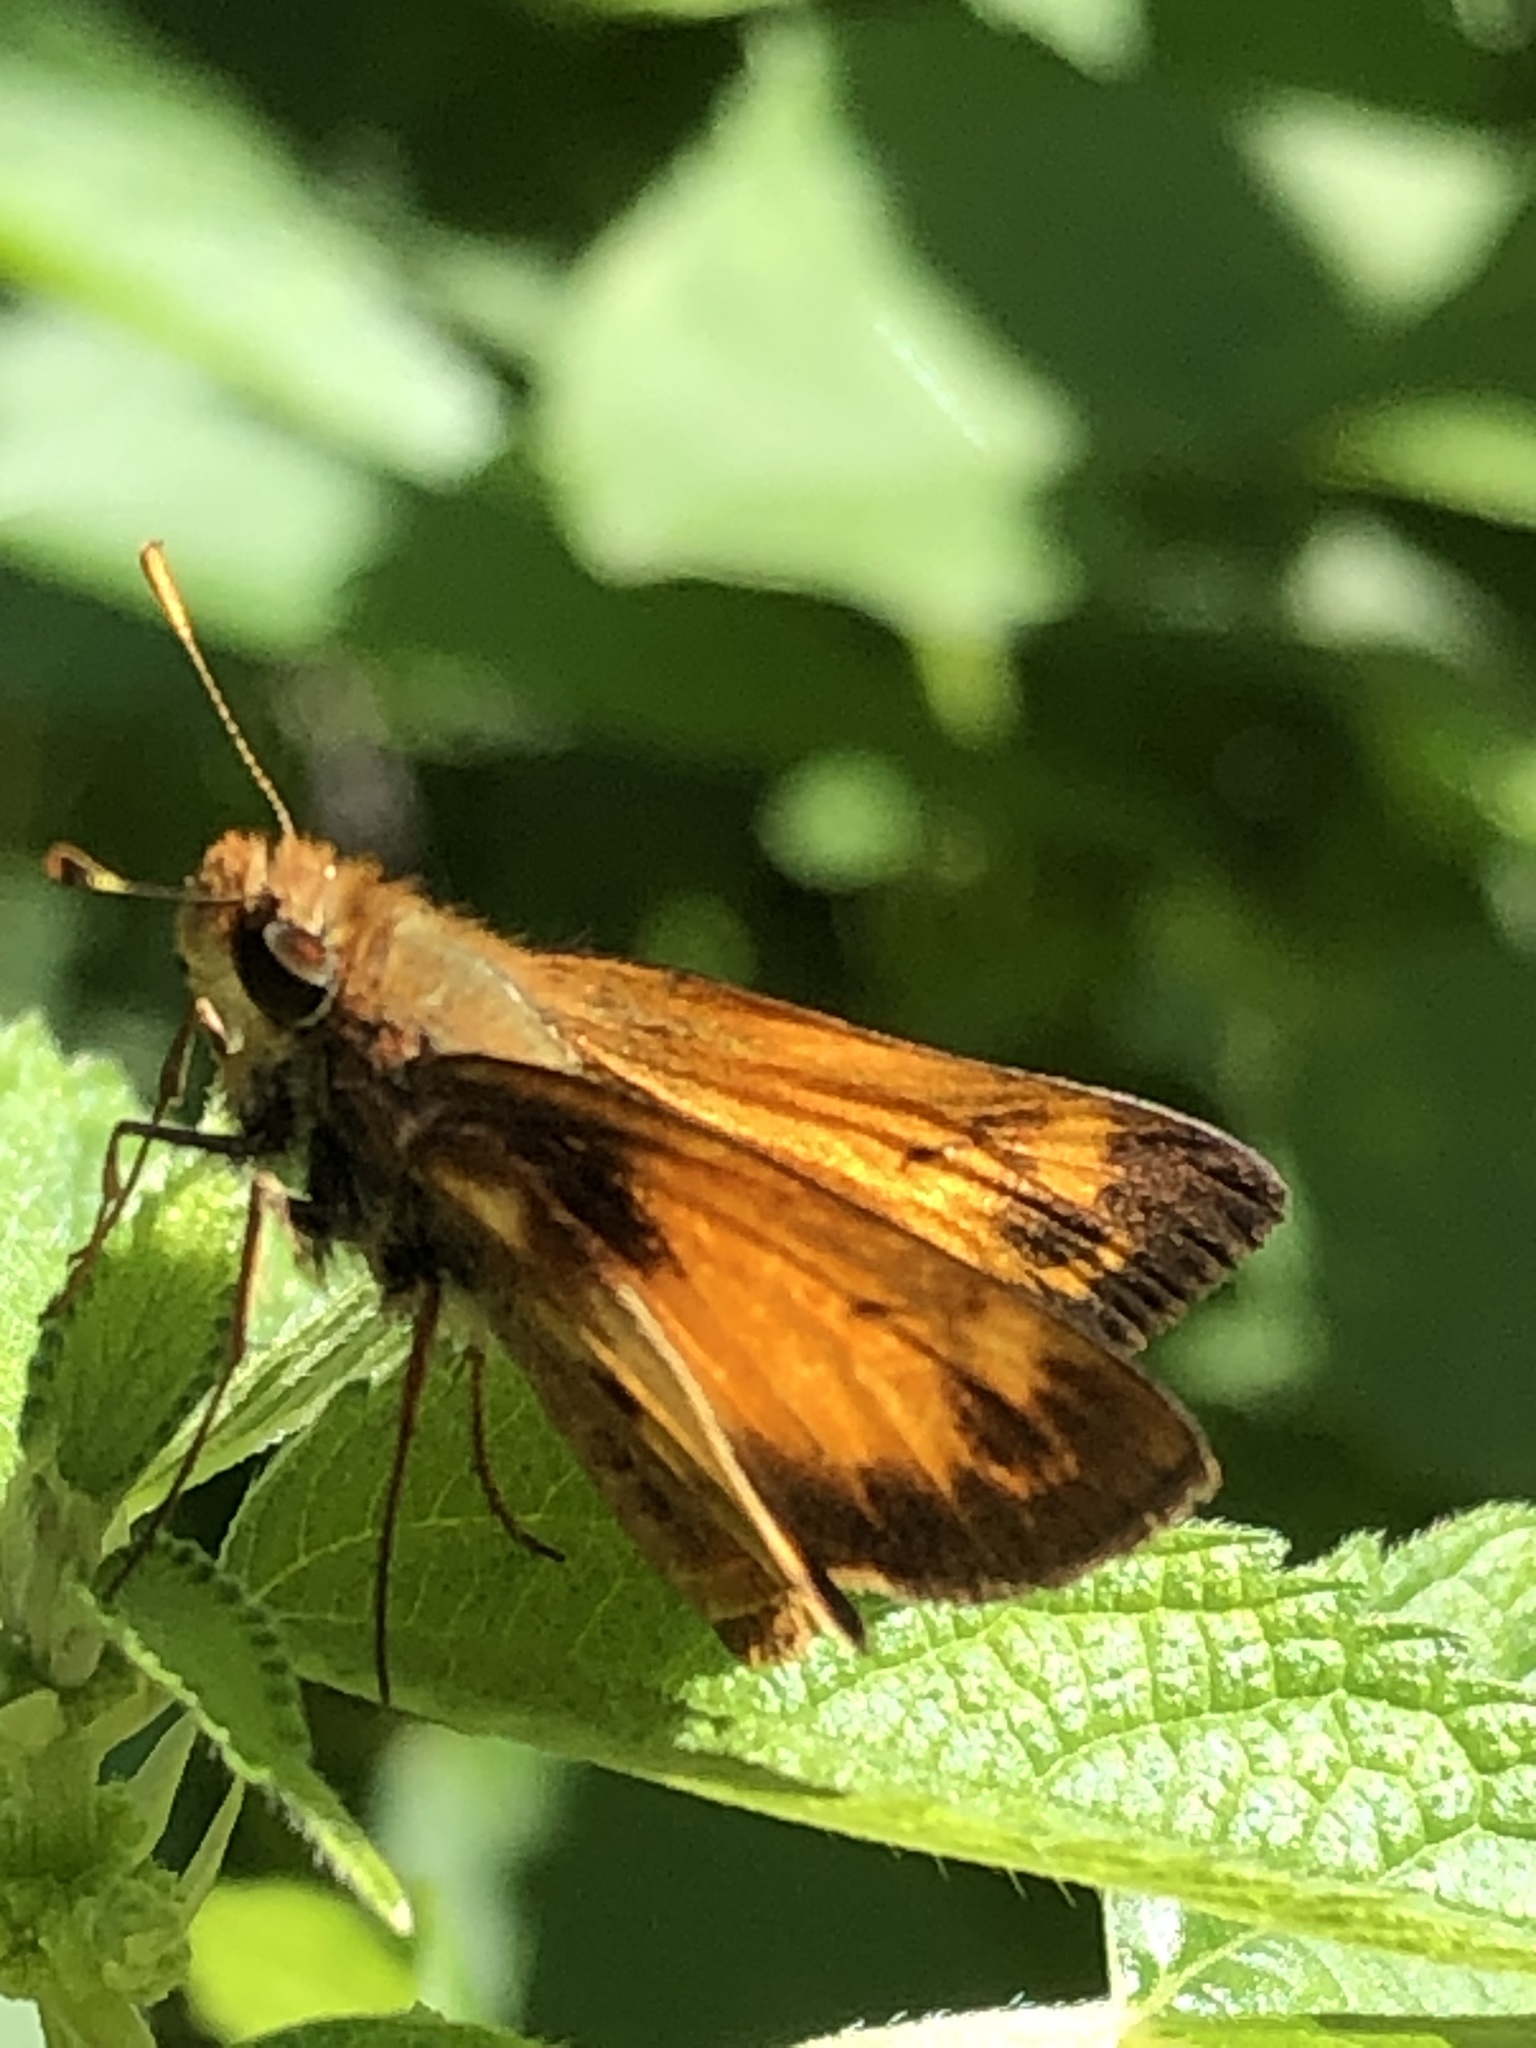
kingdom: Animalia
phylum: Arthropoda
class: Insecta
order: Lepidoptera
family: Hesperiidae
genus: Lon
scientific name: Lon zabulon
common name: Zabulon skipper
